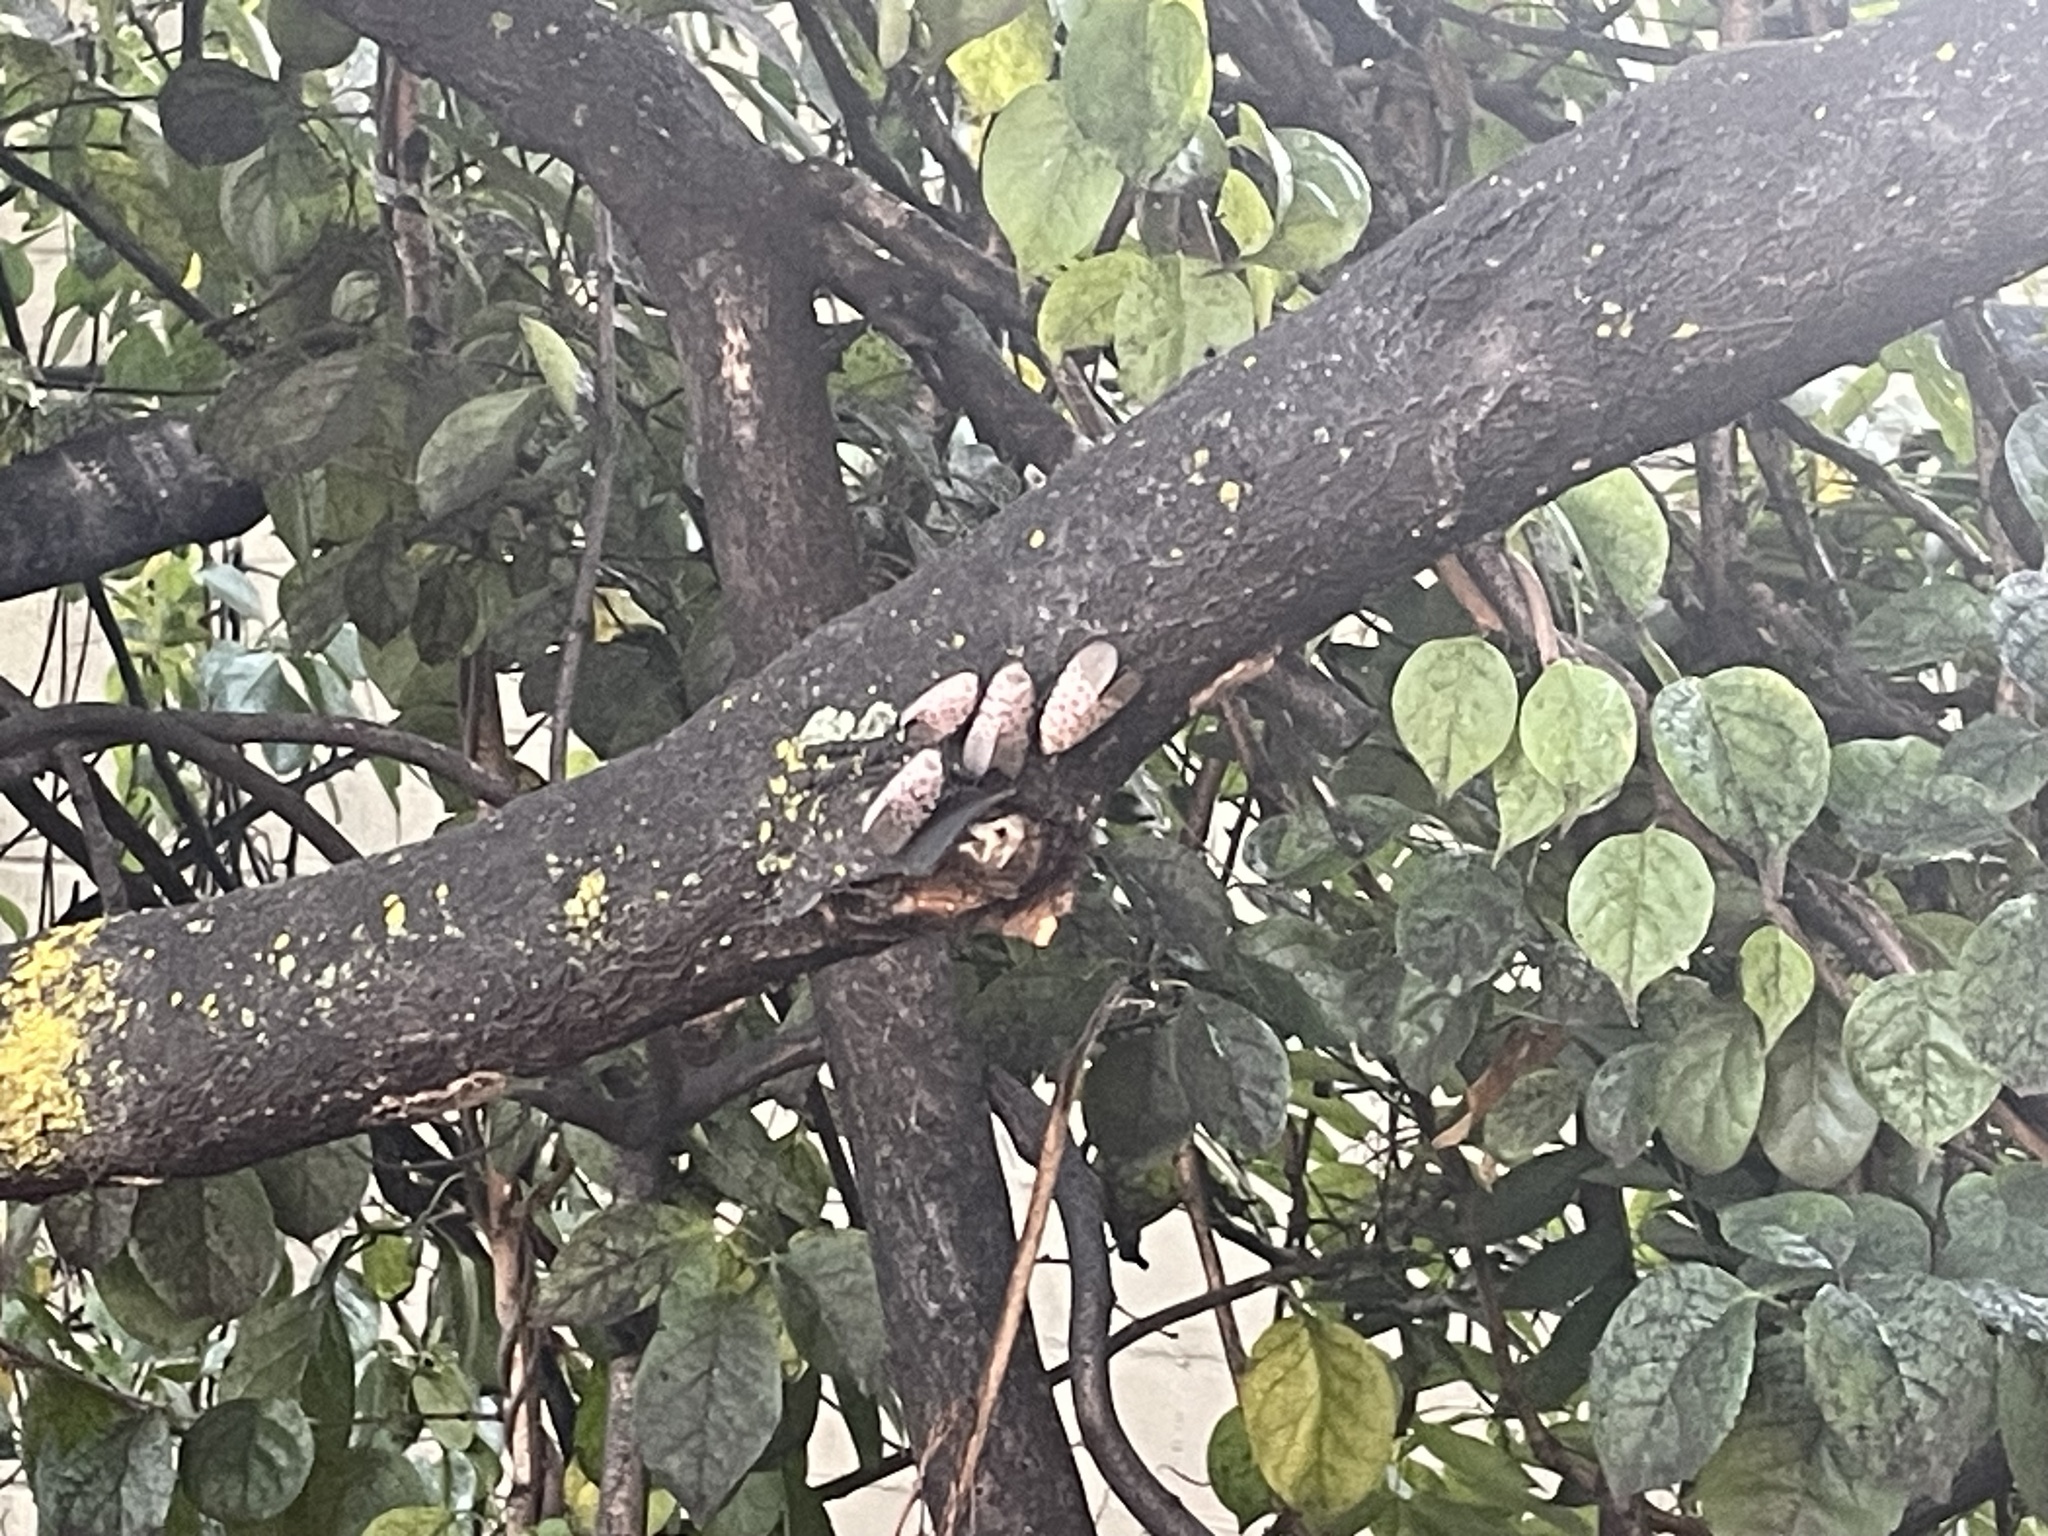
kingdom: Animalia
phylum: Arthropoda
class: Insecta
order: Hemiptera
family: Fulgoridae
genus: Lycorma
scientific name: Lycorma delicatula
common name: Spotted lanternfly
